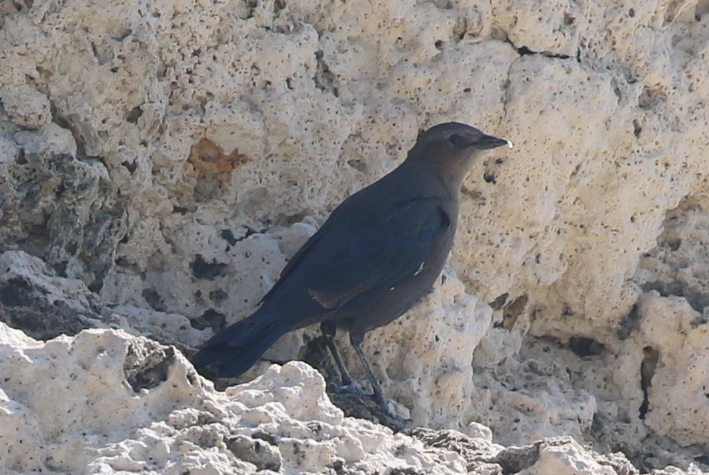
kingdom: Animalia
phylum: Chordata
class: Aves
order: Passeriformes
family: Icteridae
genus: Euphagus
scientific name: Euphagus cyanocephalus
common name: Brewer's blackbird
